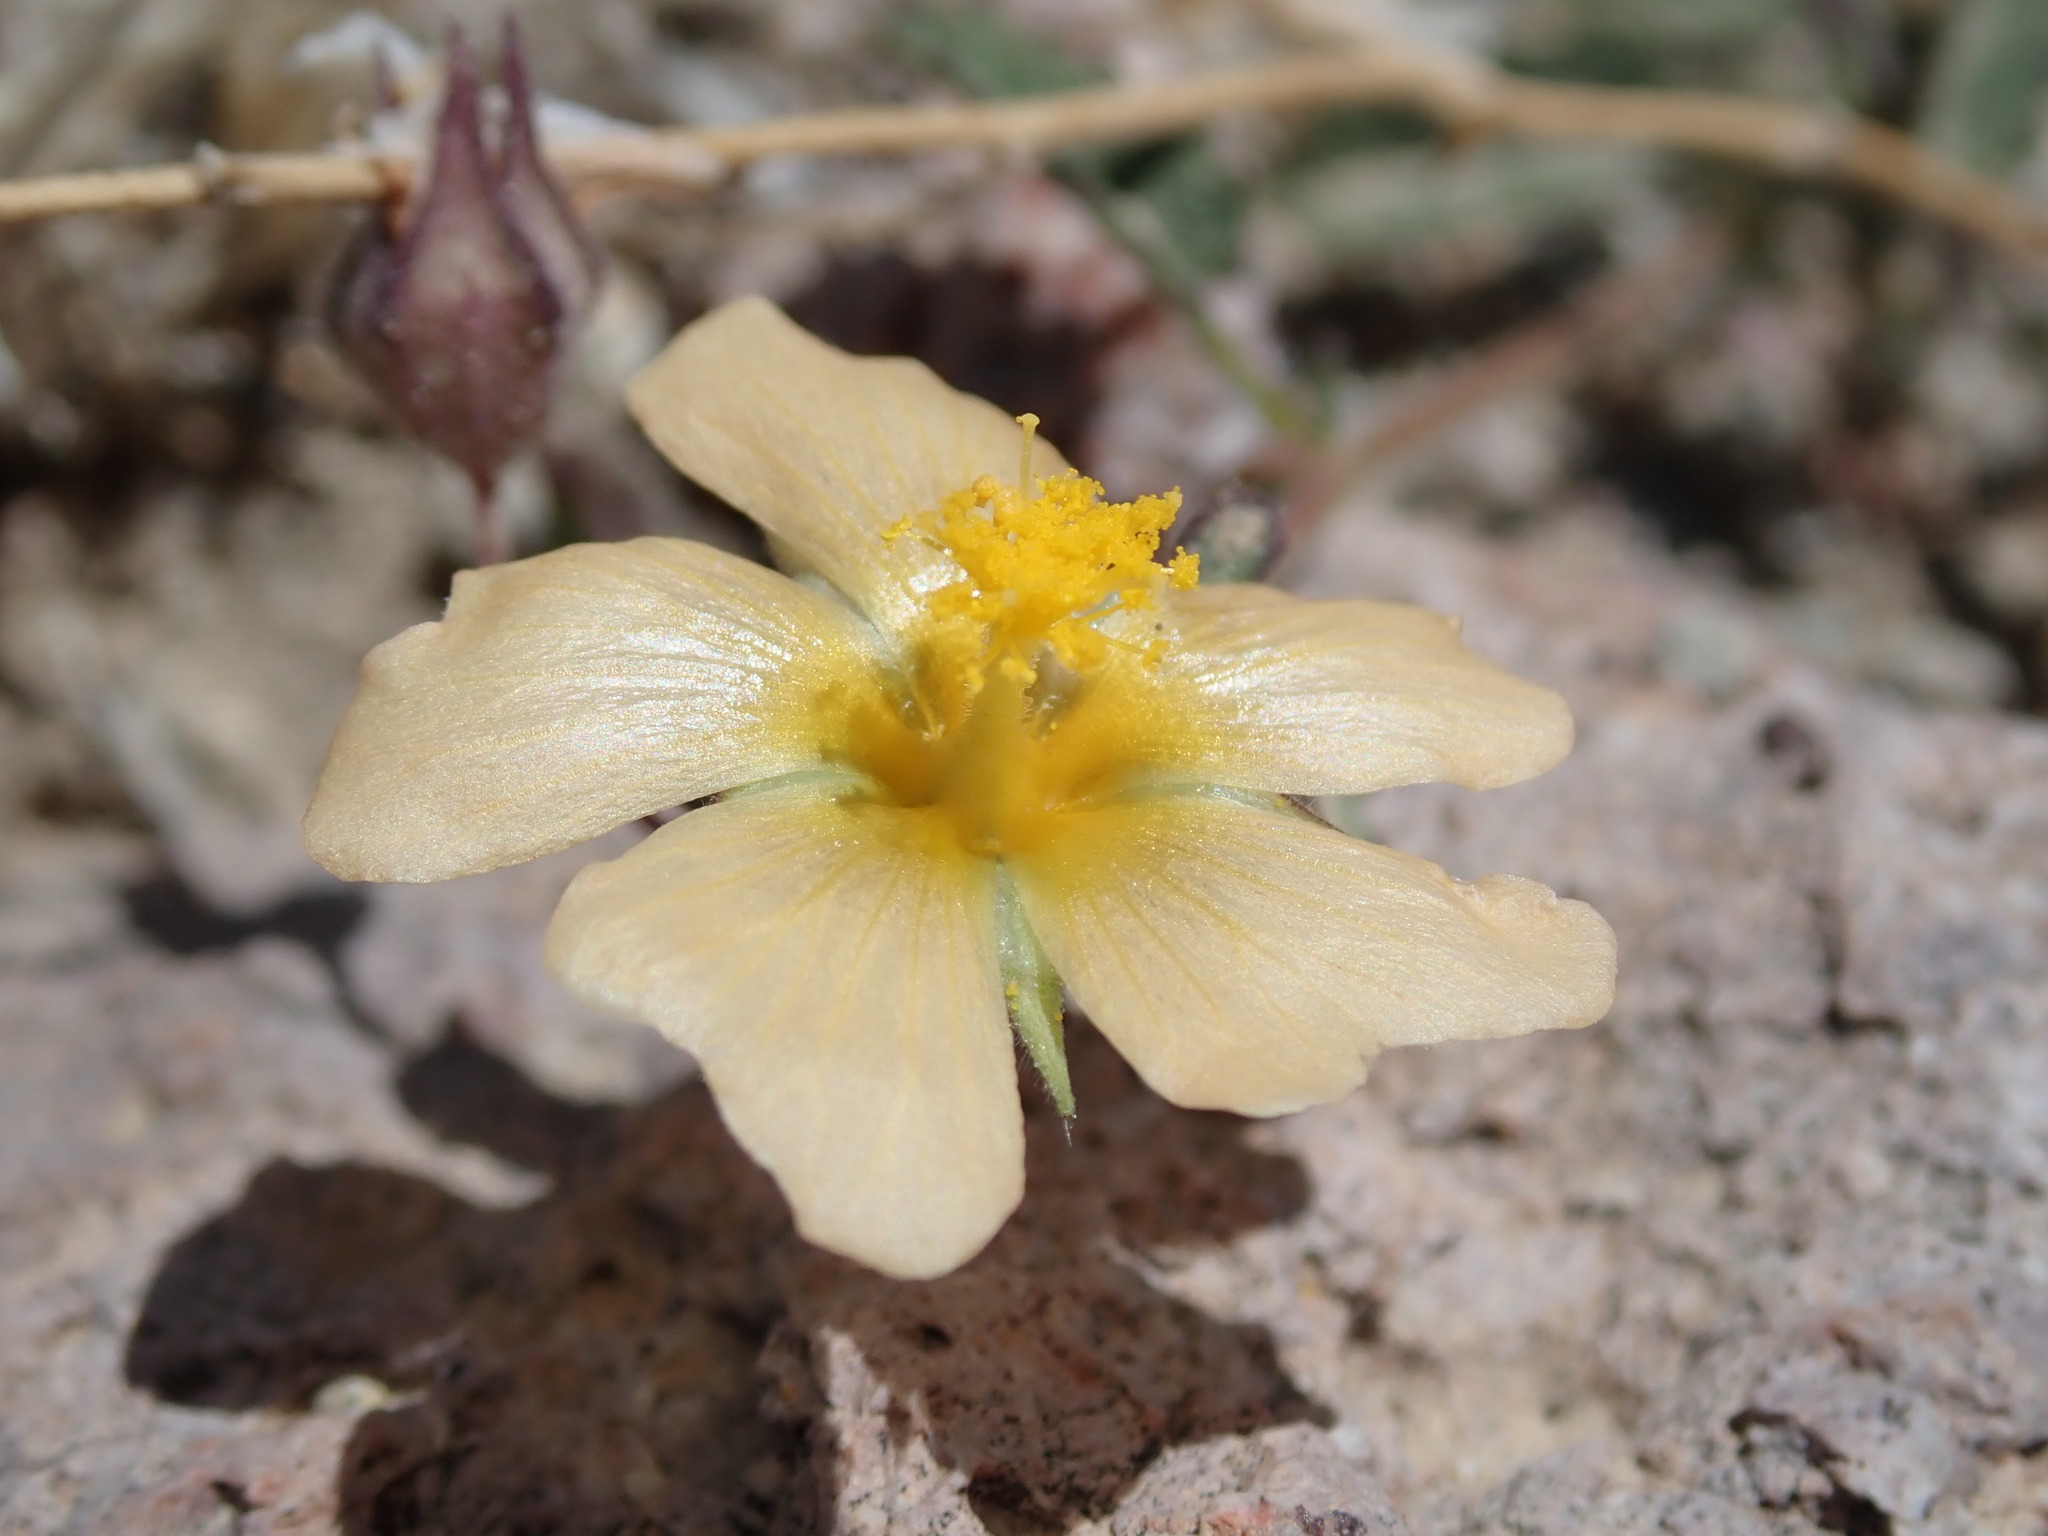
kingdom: Plantae
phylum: Tracheophyta
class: Magnoliopsida
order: Malvales
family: Malvaceae
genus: Sida
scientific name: Sida abutilifolia
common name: Spreading fanpetals
